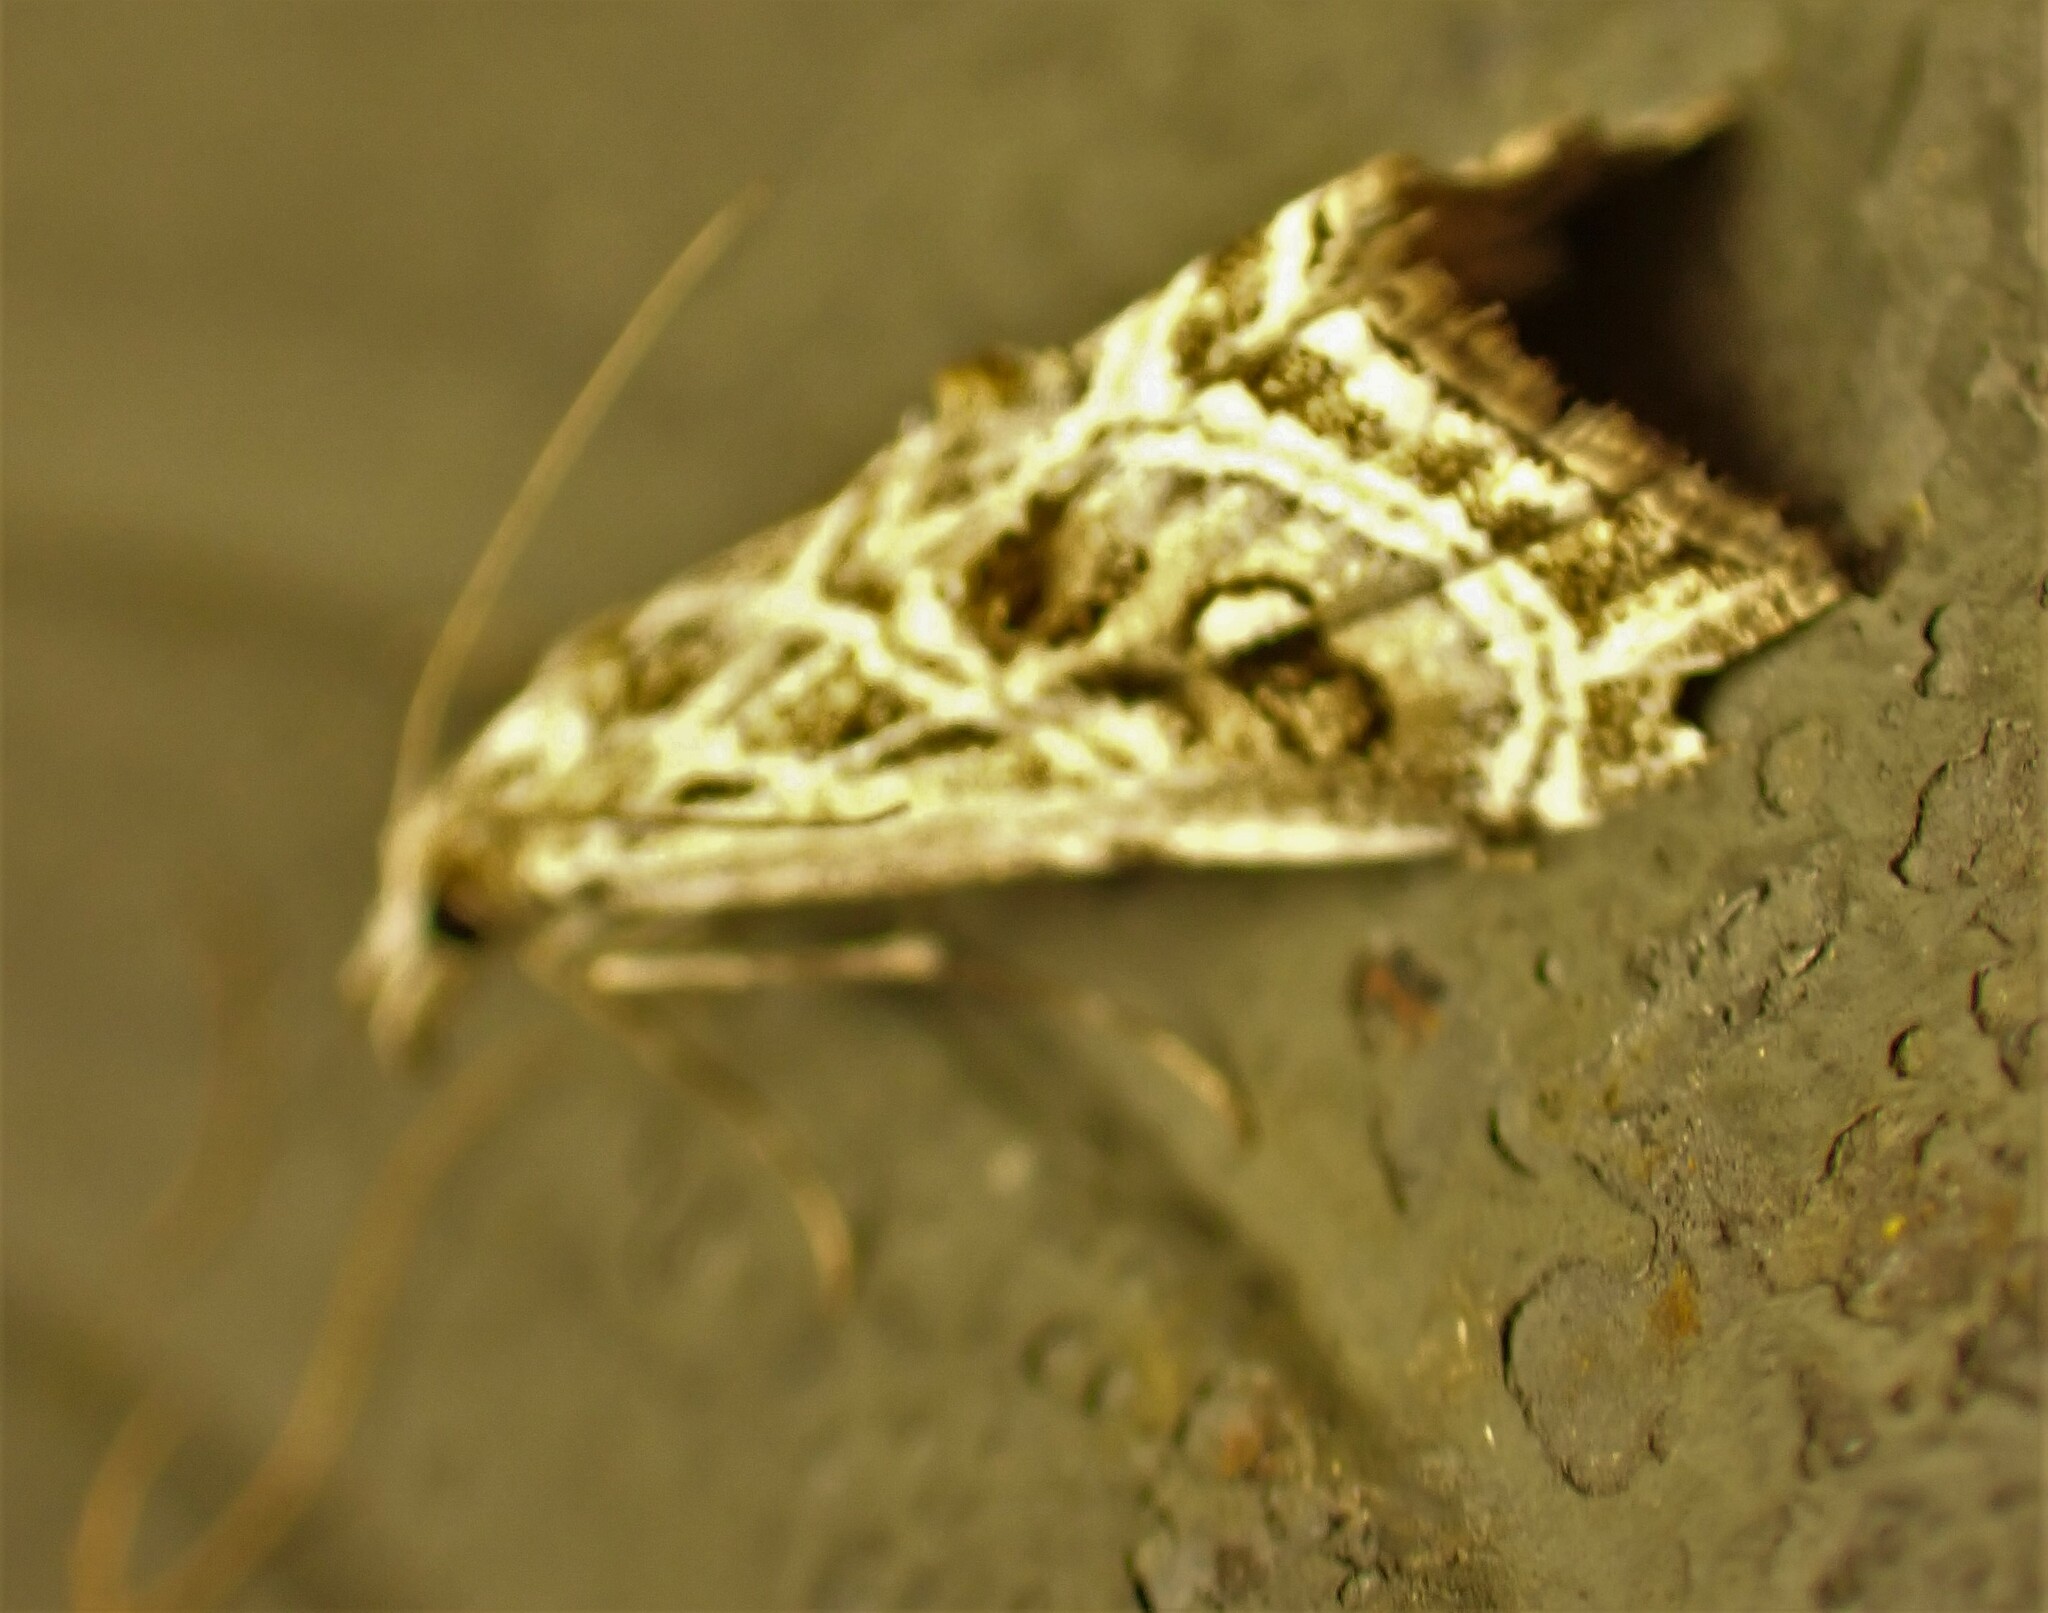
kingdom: Animalia
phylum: Arthropoda
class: Insecta
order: Lepidoptera
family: Crambidae
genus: Gadira
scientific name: Gadira acerella
